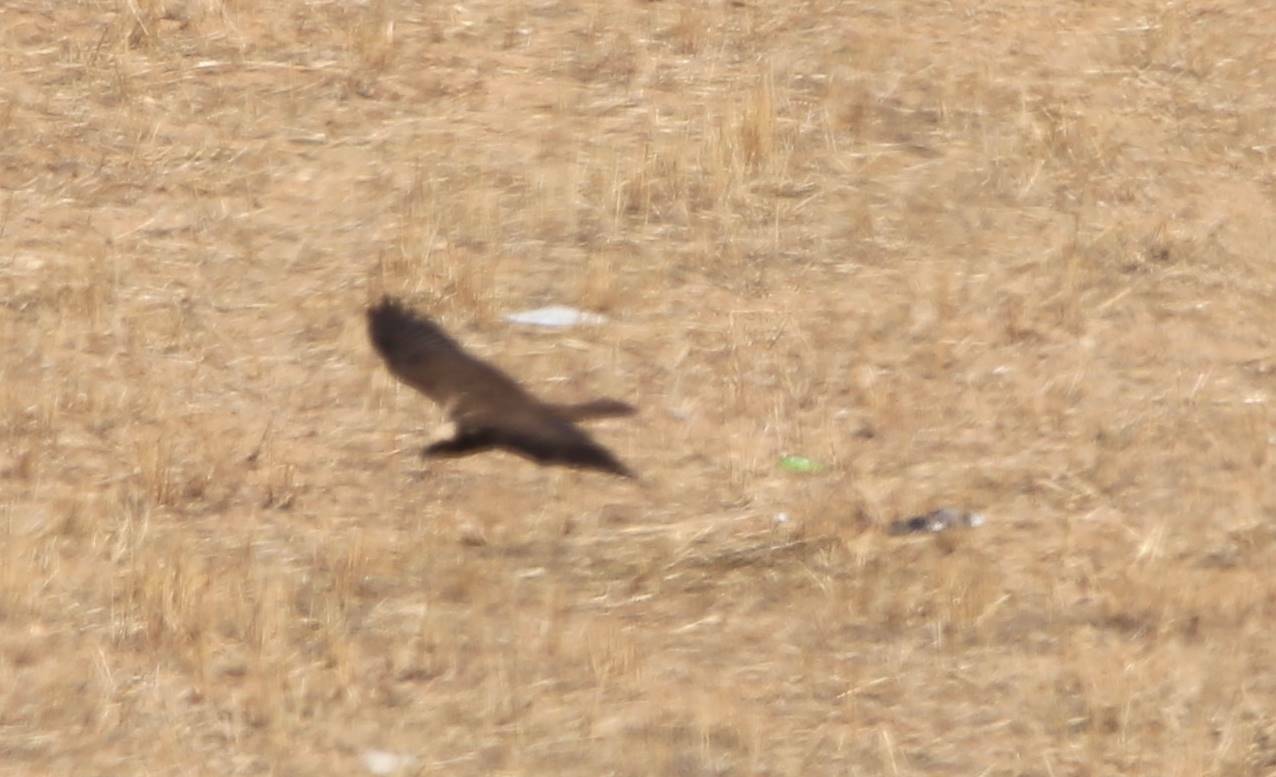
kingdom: Animalia
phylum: Chordata
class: Aves
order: Accipitriformes
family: Accipitridae
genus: Circus
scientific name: Circus aeruginosus
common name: Western marsh harrier
